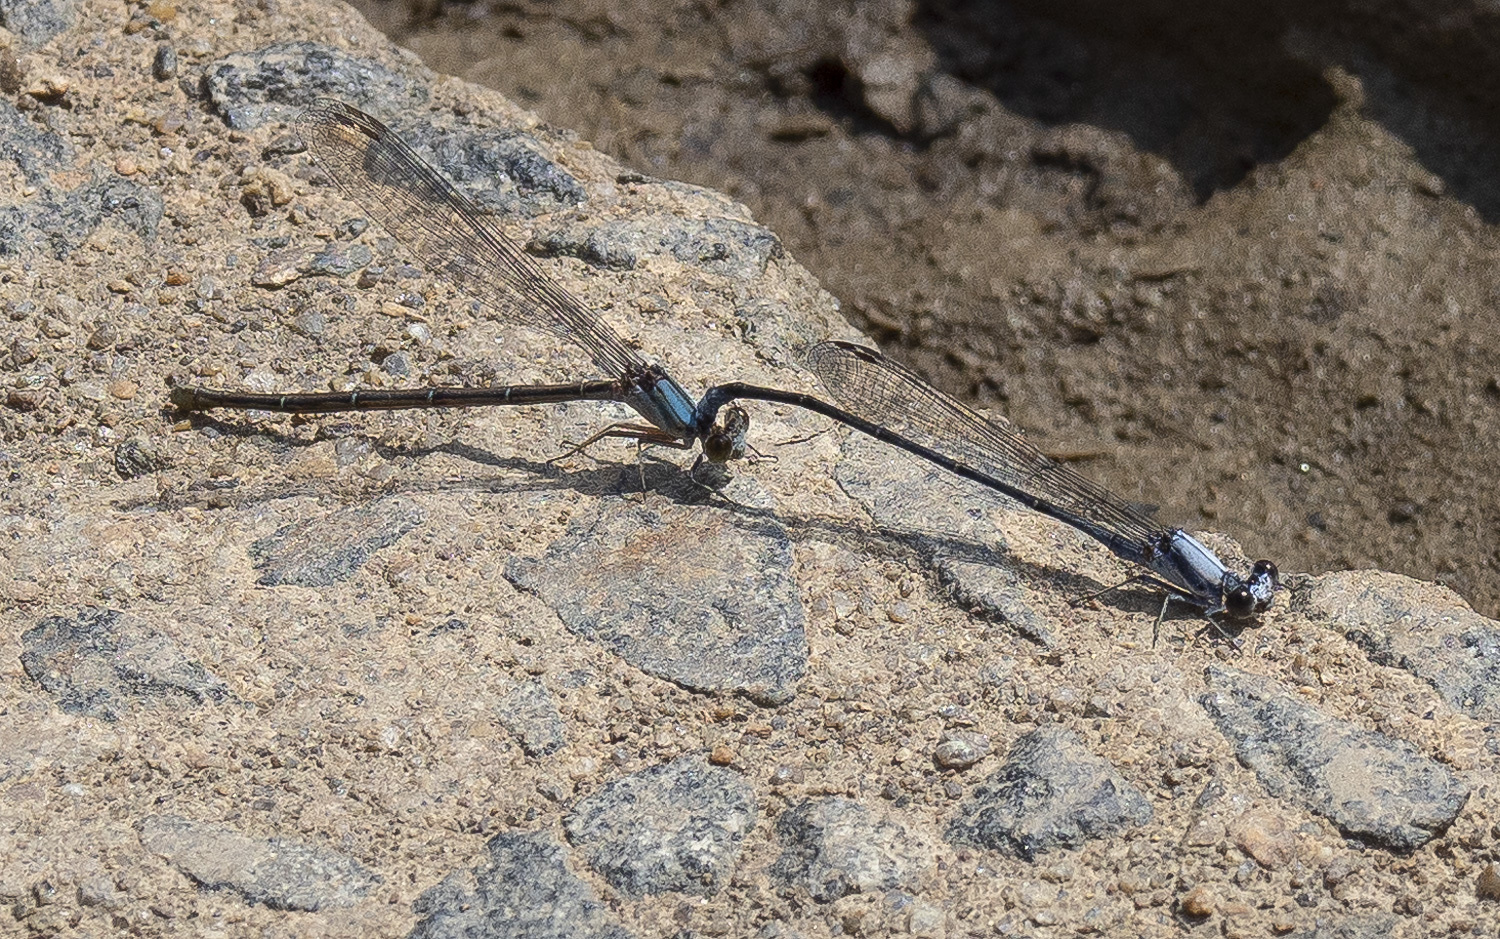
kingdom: Animalia
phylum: Arthropoda
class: Insecta
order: Odonata
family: Coenagrionidae
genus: Argia
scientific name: Argia moesta
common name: Powdered dancer
